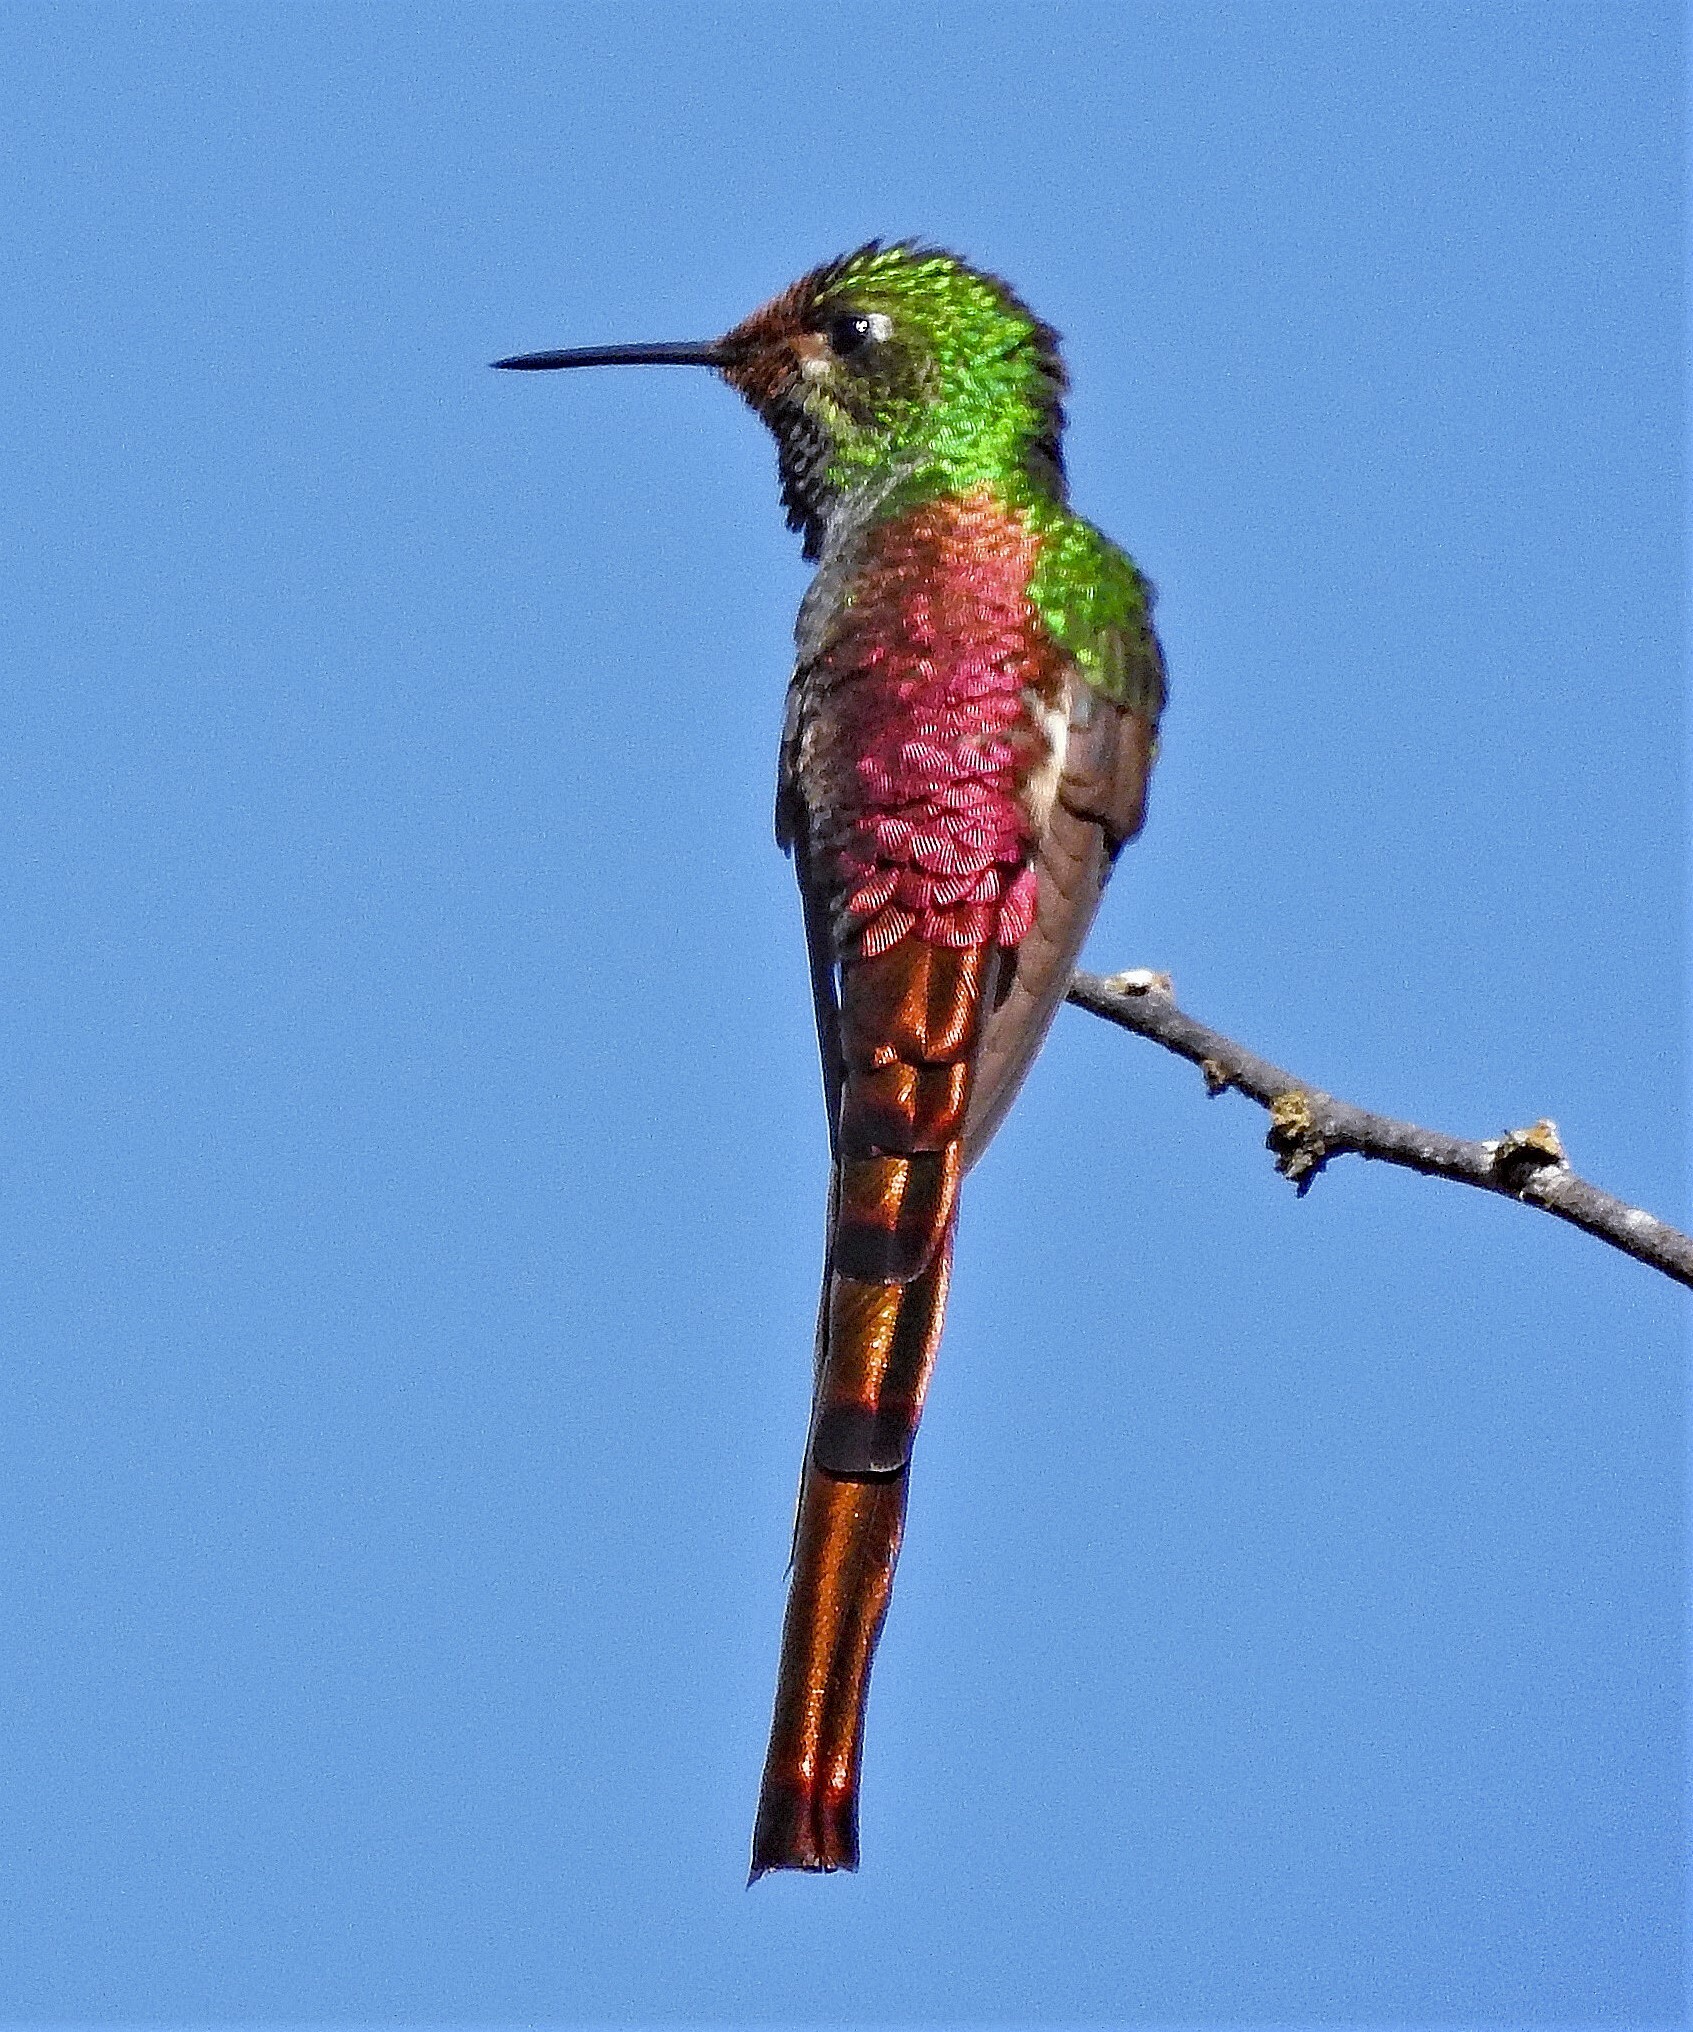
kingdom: Animalia
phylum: Chordata
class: Aves
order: Apodiformes
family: Trochilidae
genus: Sappho
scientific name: Sappho sparganurus
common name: Red-tailed comet
